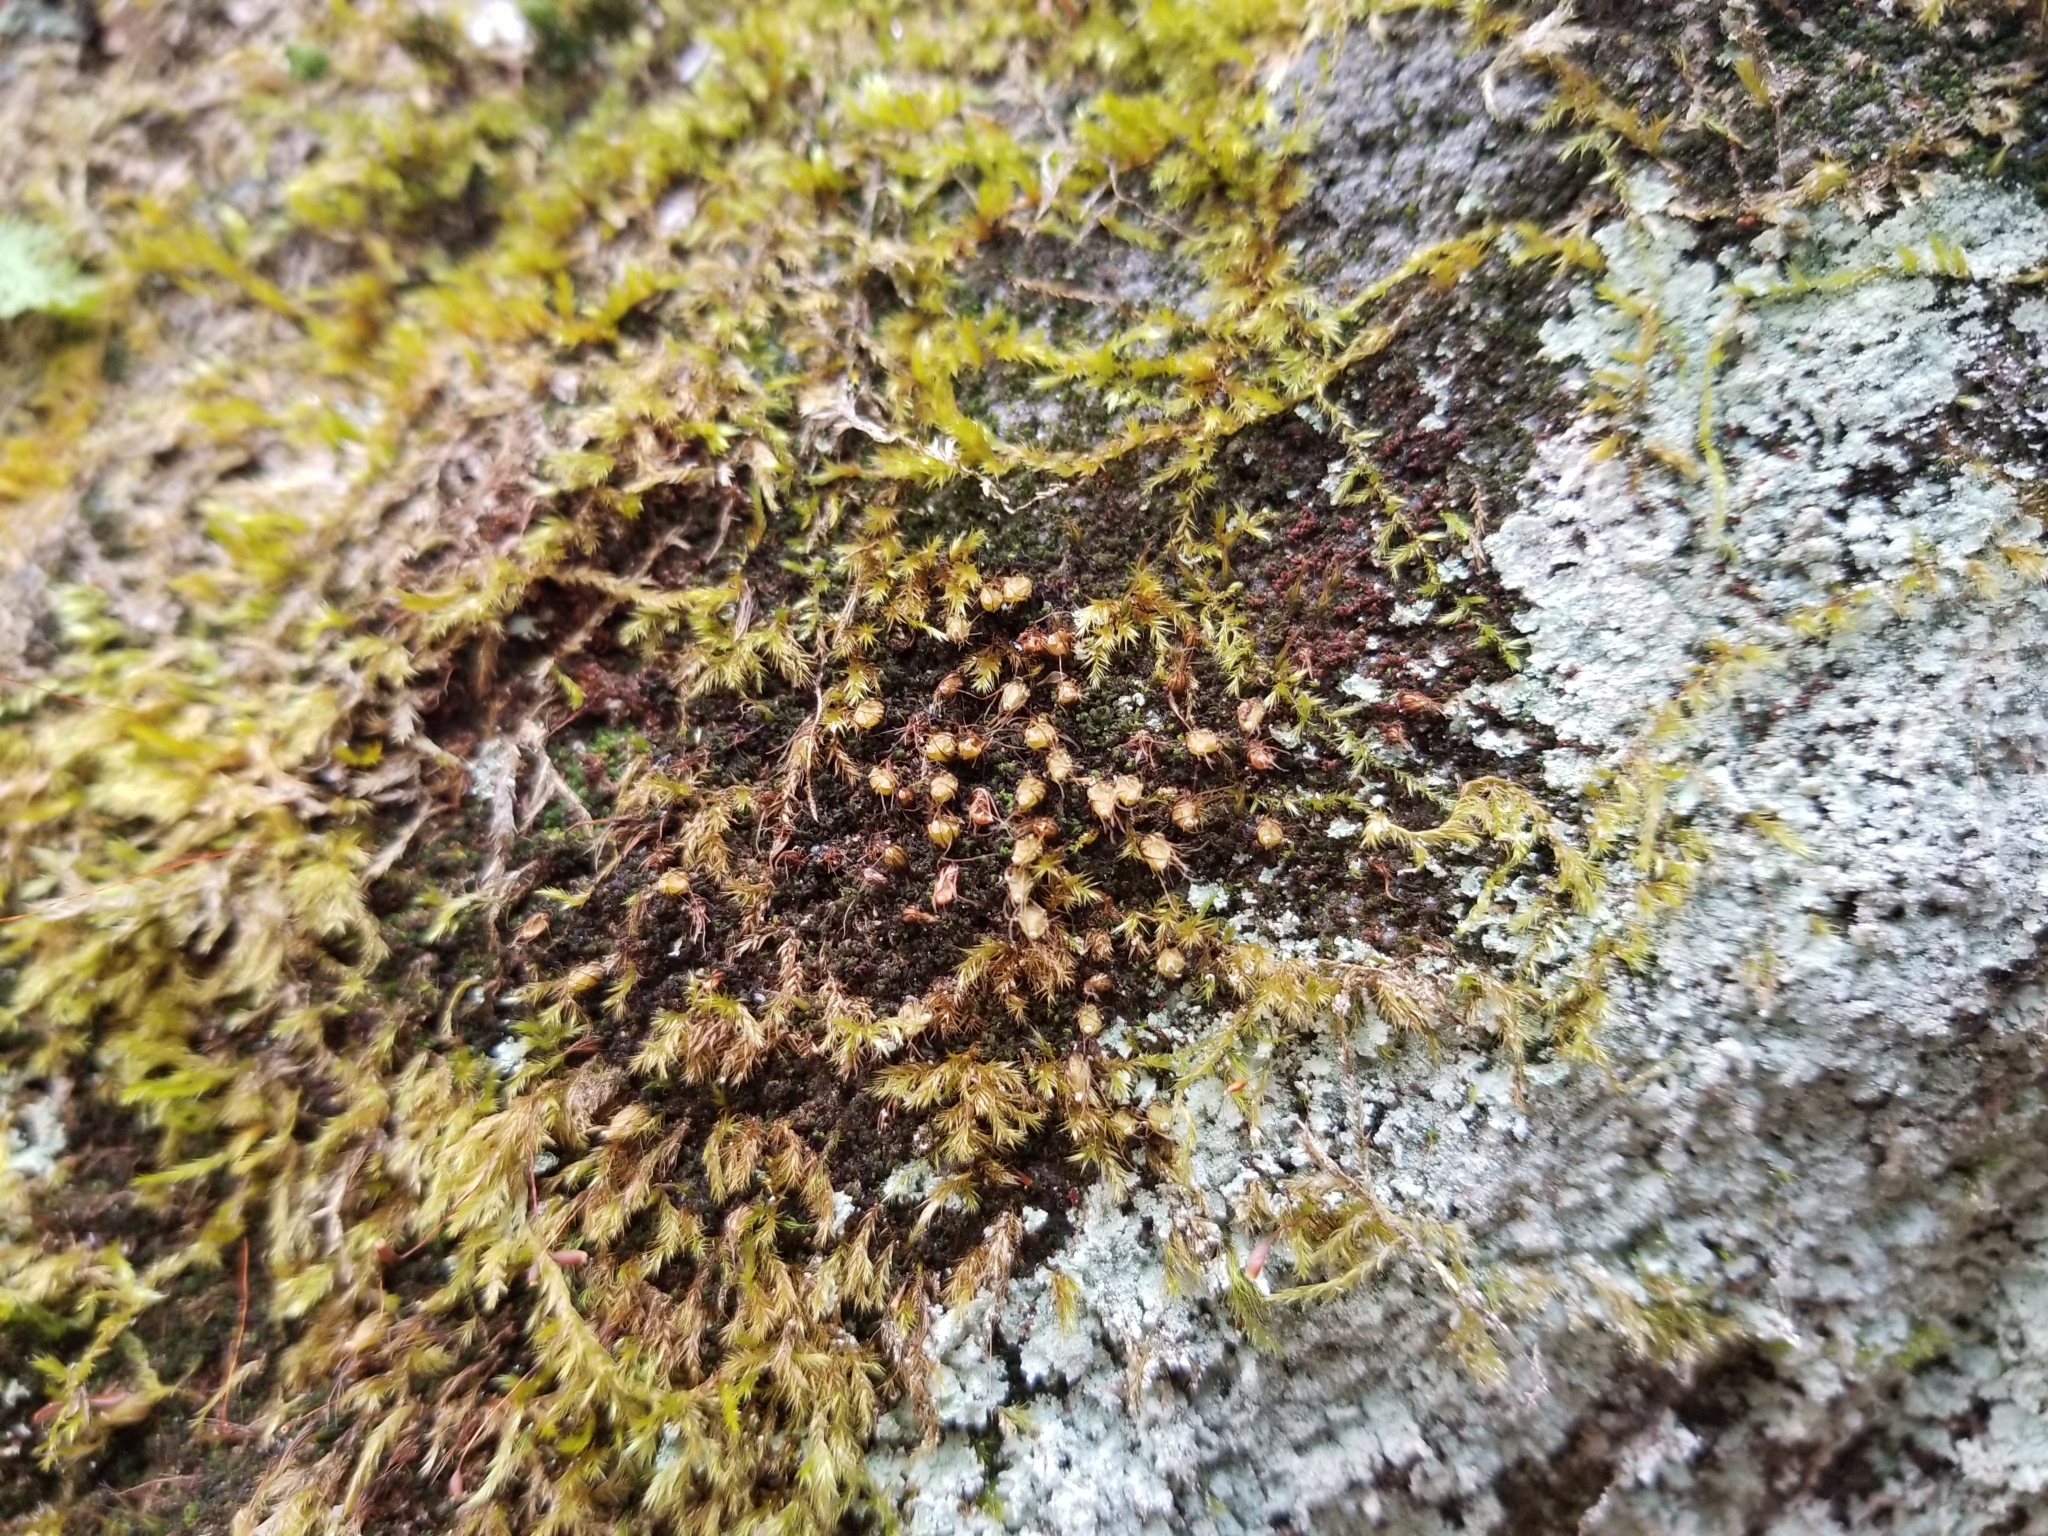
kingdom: Plantae
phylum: Bryophyta
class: Bryopsida
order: Diphysciales
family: Diphysciaceae
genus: Diphyscium
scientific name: Diphyscium foliosum
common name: Nut moss
